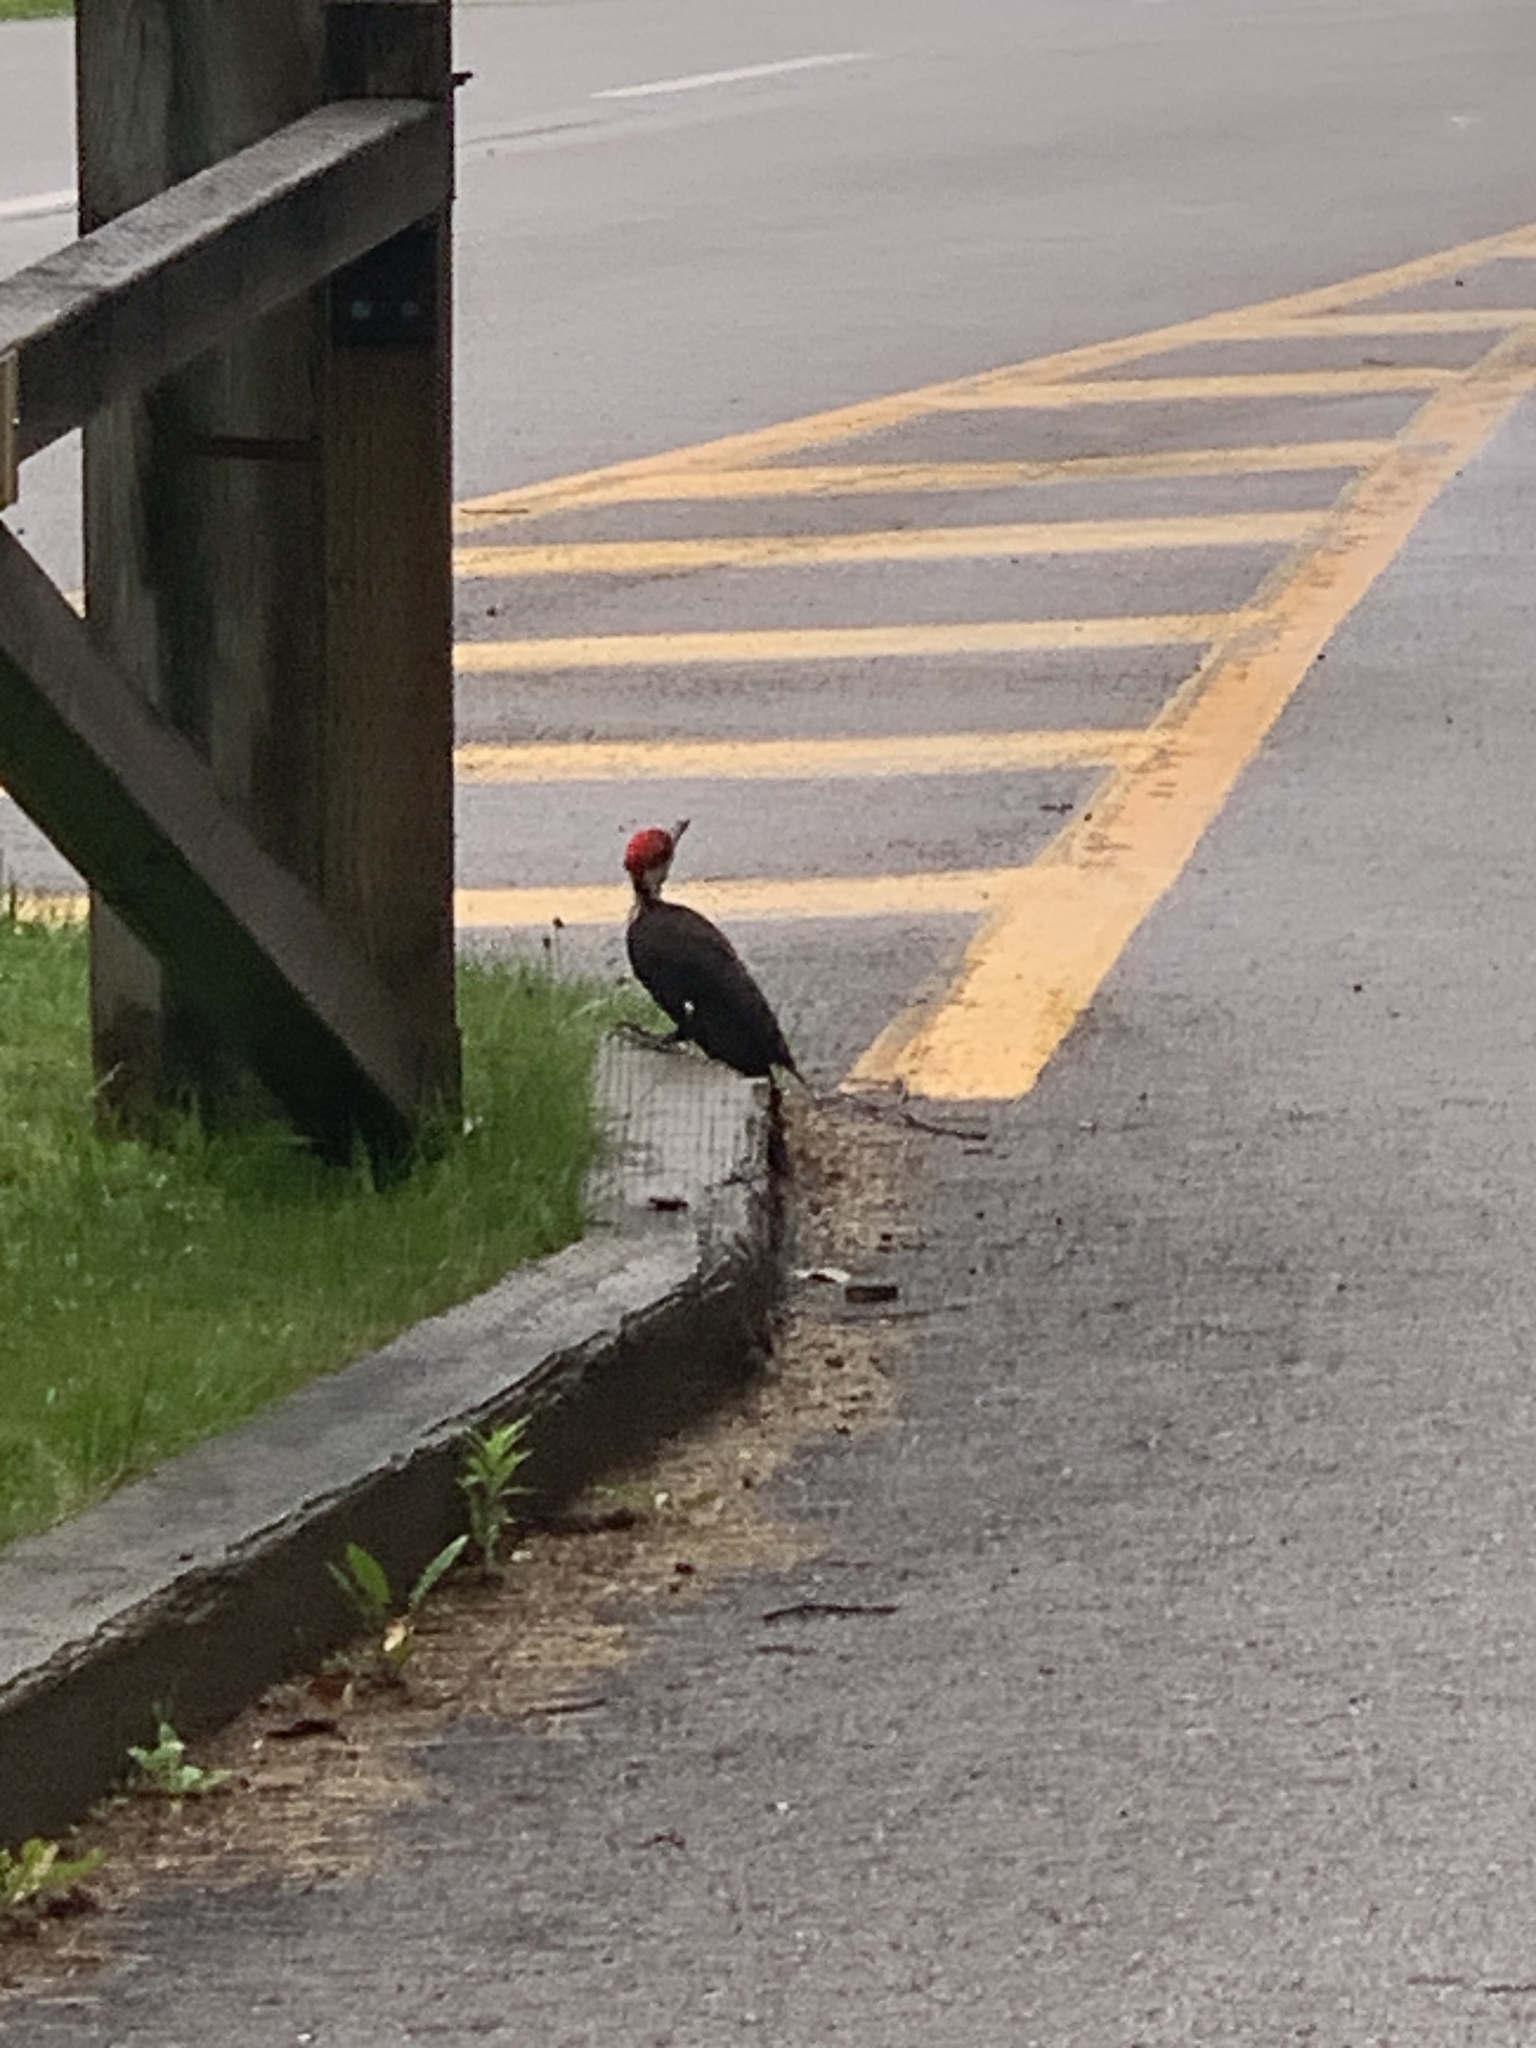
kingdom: Animalia
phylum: Chordata
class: Aves
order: Piciformes
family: Picidae
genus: Dryocopus
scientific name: Dryocopus pileatus
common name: Pileated woodpecker
